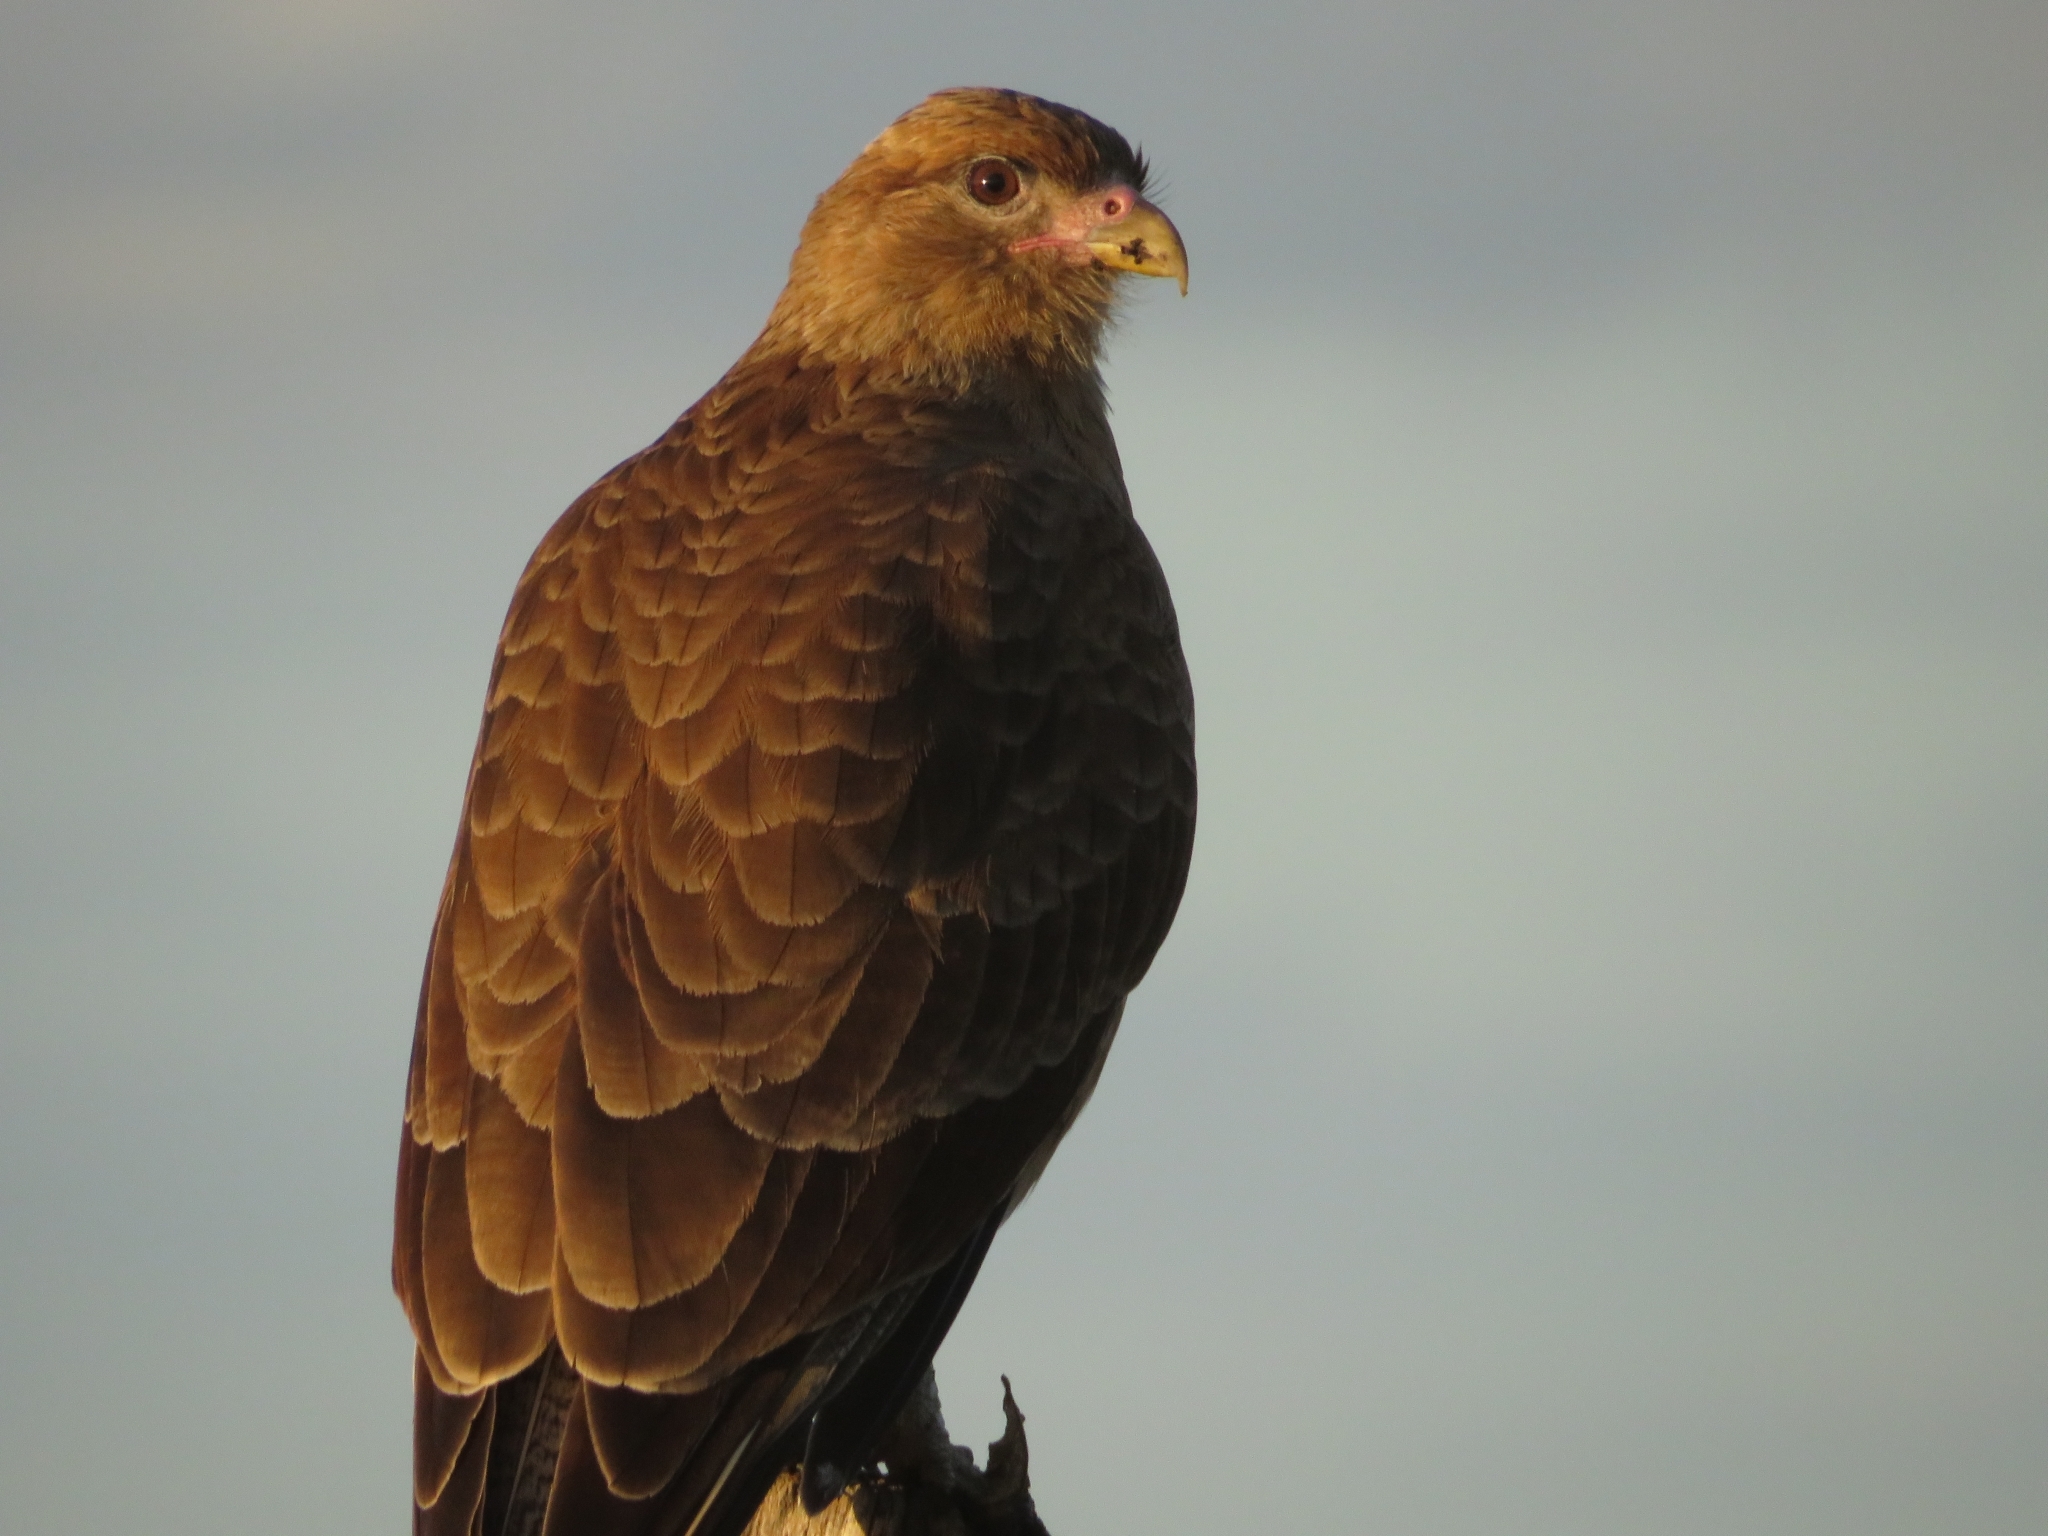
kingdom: Animalia
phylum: Chordata
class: Aves
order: Falconiformes
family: Falconidae
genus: Daptrius
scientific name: Daptrius
